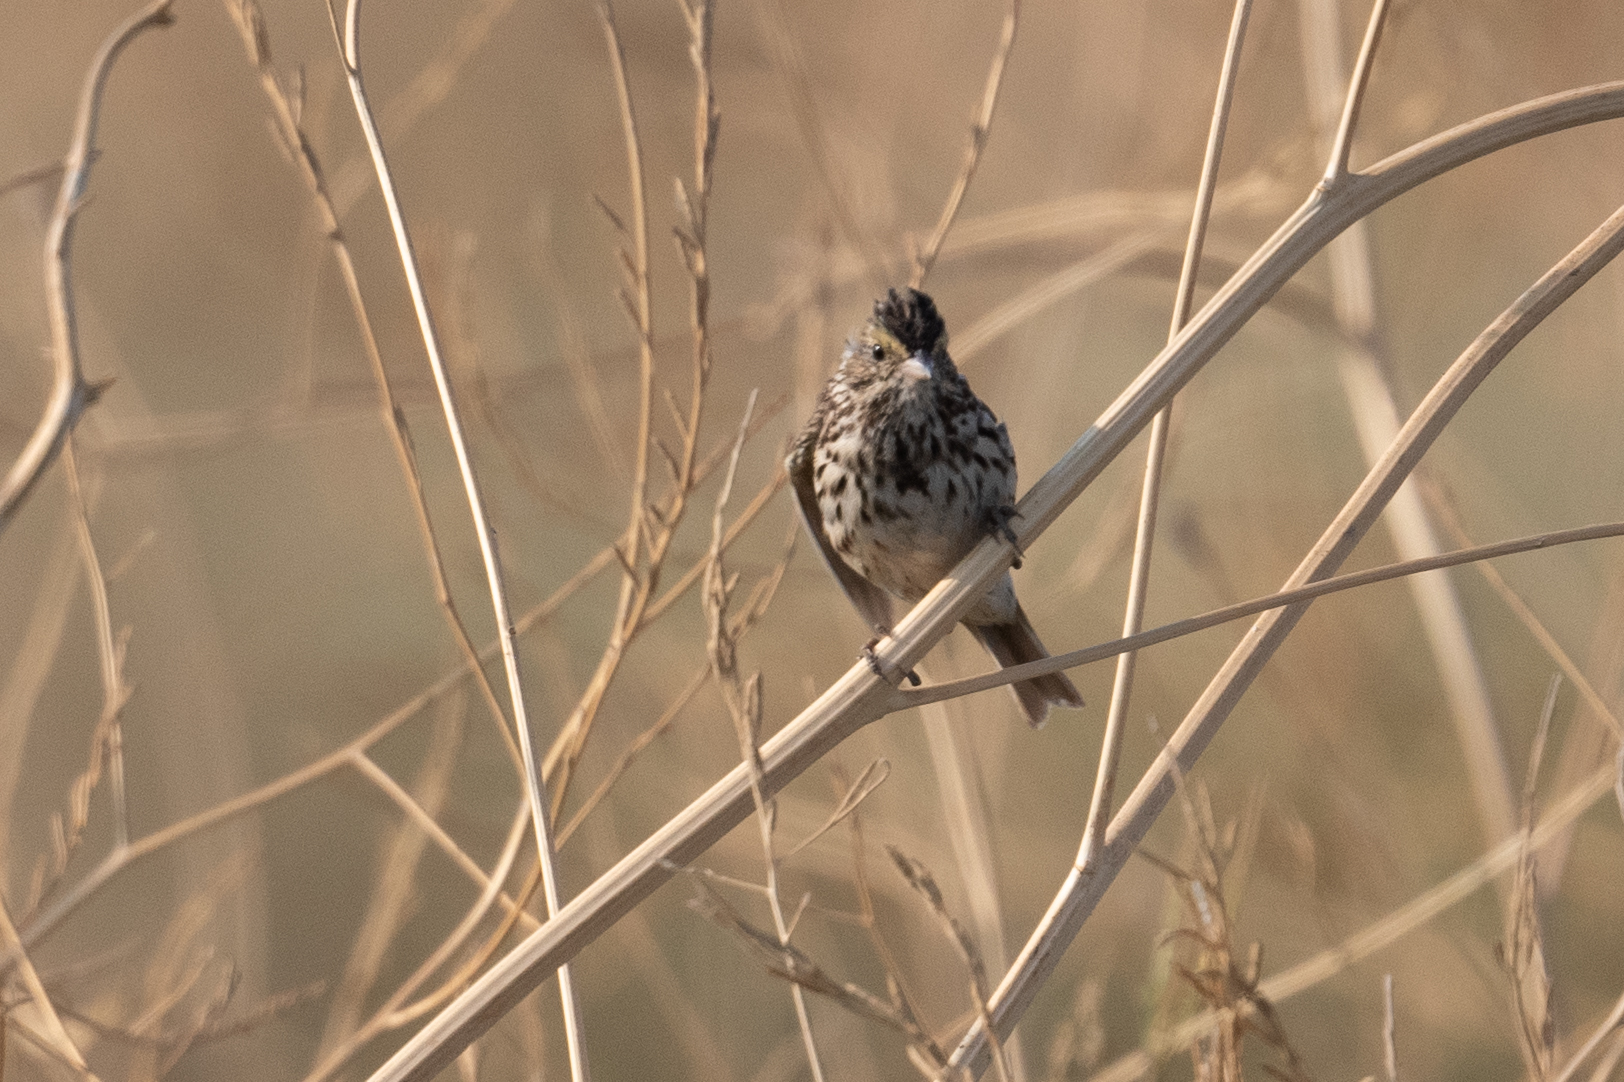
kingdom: Animalia
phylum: Chordata
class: Aves
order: Passeriformes
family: Passerellidae
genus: Passerculus
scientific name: Passerculus sandwichensis
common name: Savannah sparrow
